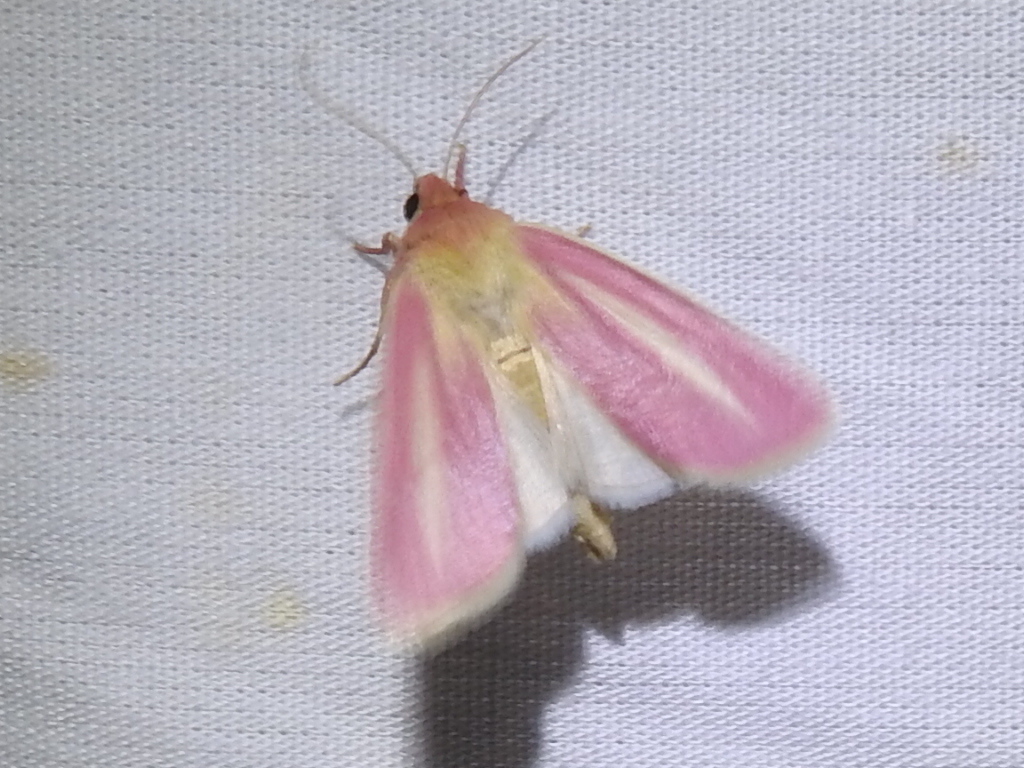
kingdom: Animalia
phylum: Arthropoda
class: Insecta
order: Lepidoptera
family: Noctuidae
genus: Heliocheilus
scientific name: Heliocheilus julia
